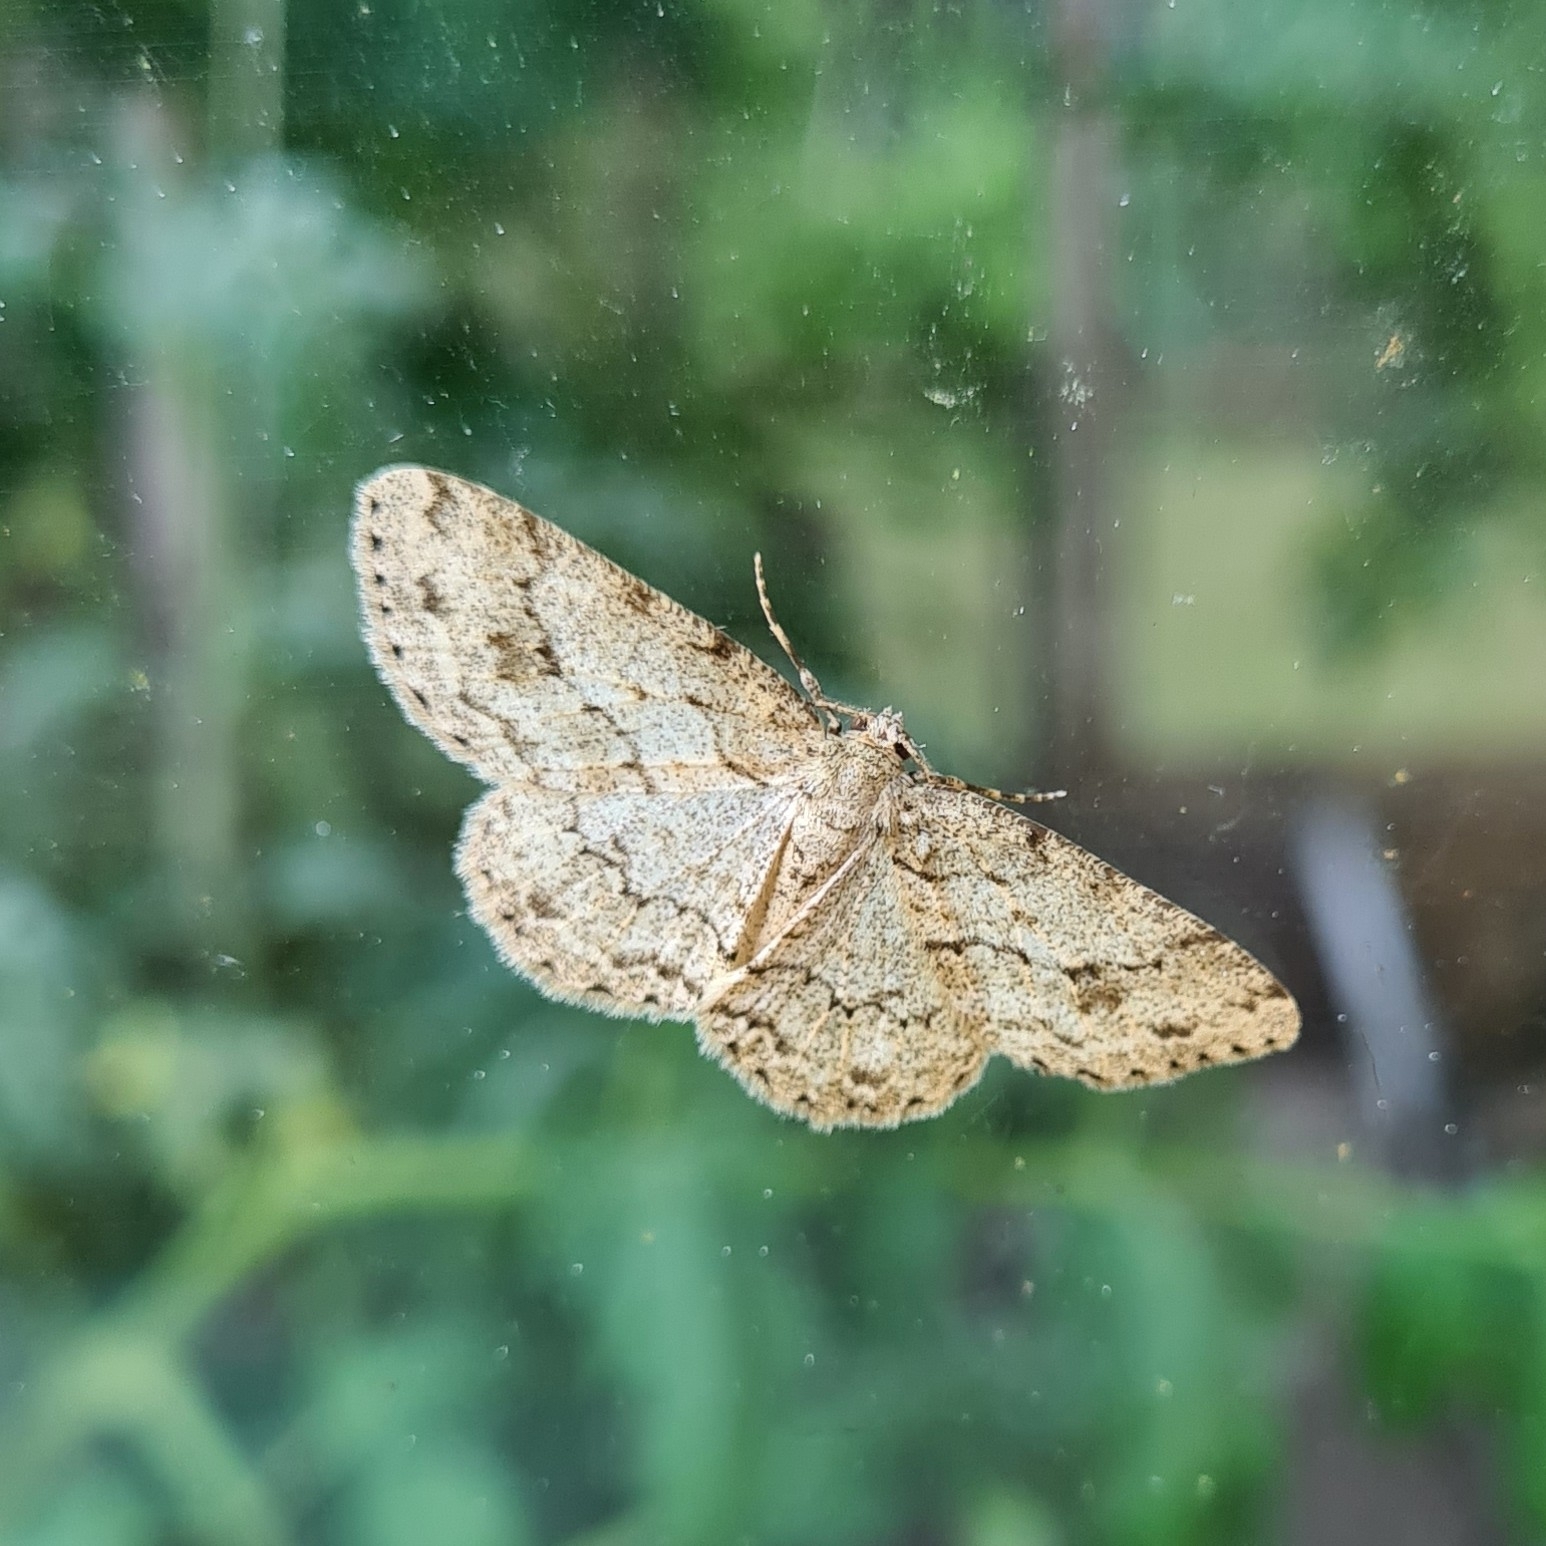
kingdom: Animalia
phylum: Arthropoda
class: Insecta
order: Lepidoptera
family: Geometridae
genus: Ectropis
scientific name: Ectropis crepuscularia
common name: Engrailed
